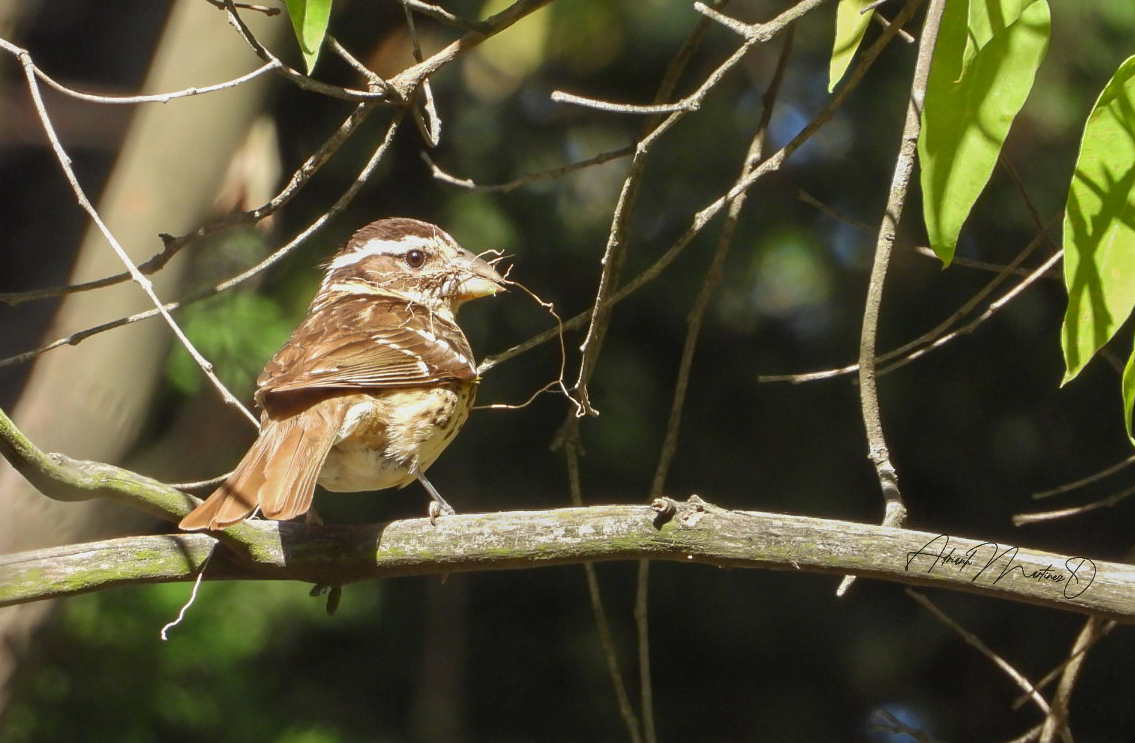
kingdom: Animalia
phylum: Chordata
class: Aves
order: Passeriformes
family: Cardinalidae
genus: Pheucticus
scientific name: Pheucticus ludovicianus
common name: Rose-breasted grosbeak
